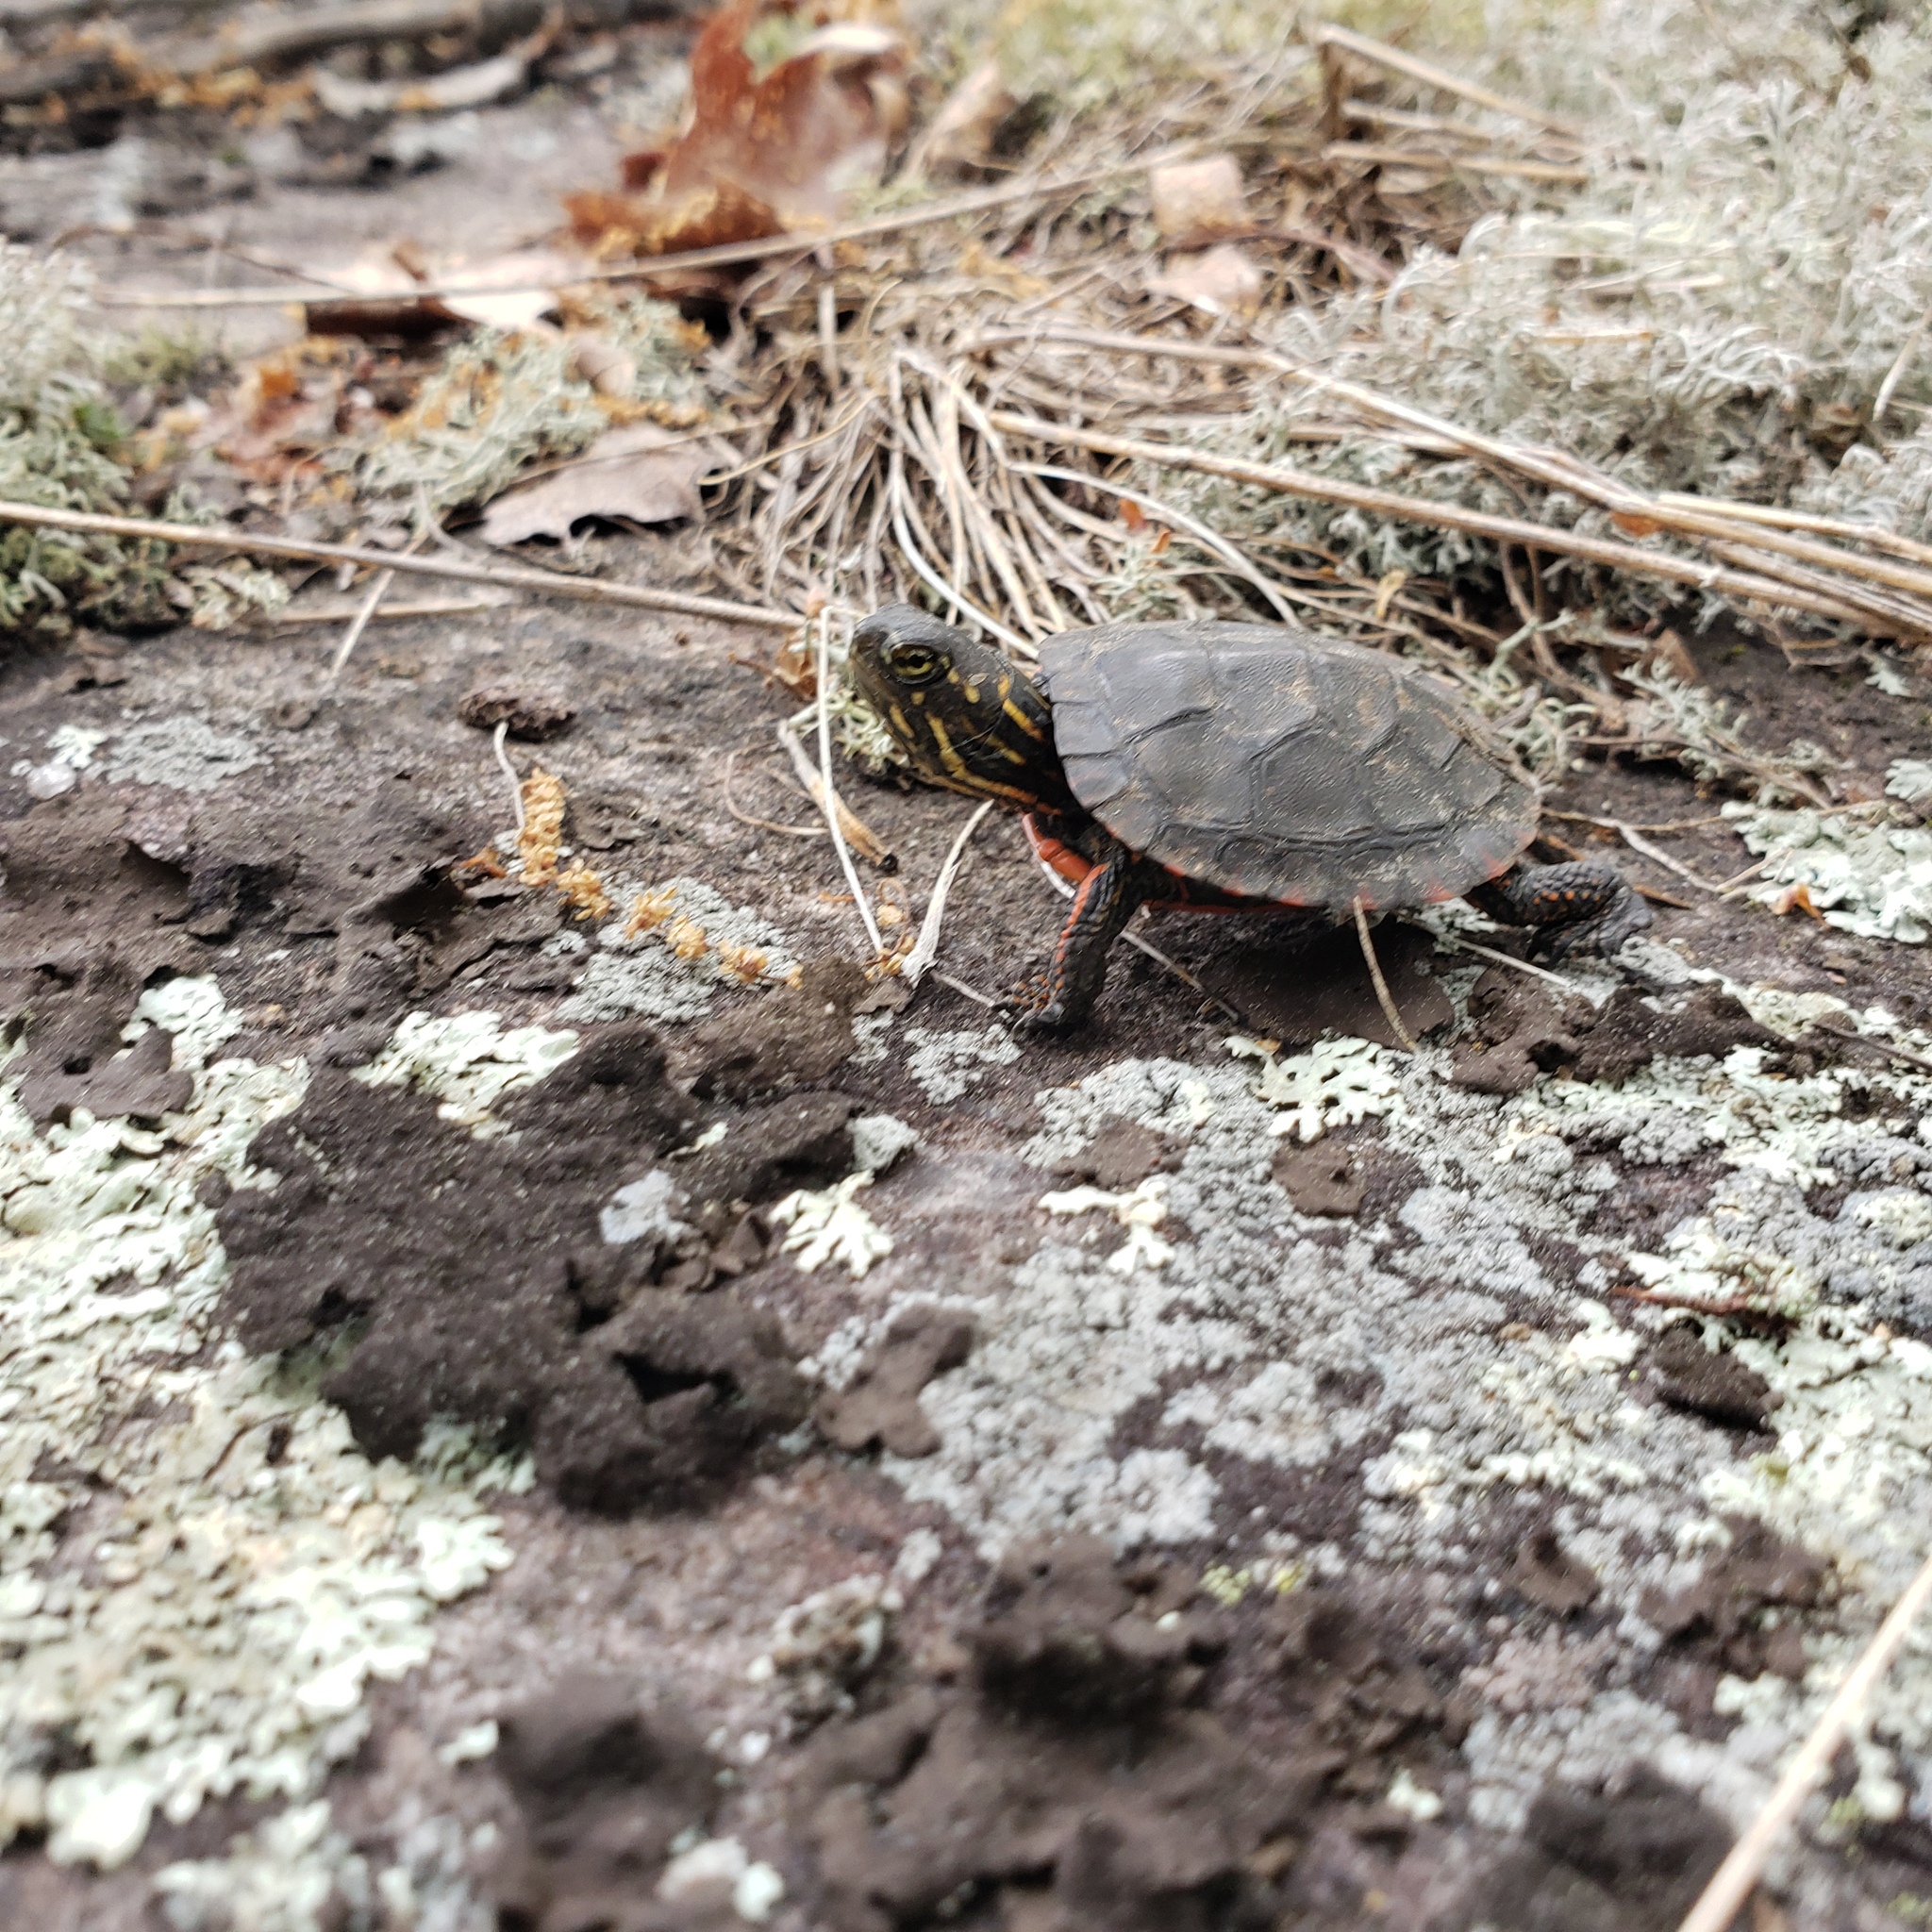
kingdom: Animalia
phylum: Chordata
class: Testudines
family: Emydidae
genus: Chrysemys
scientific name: Chrysemys picta
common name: Painted turtle
